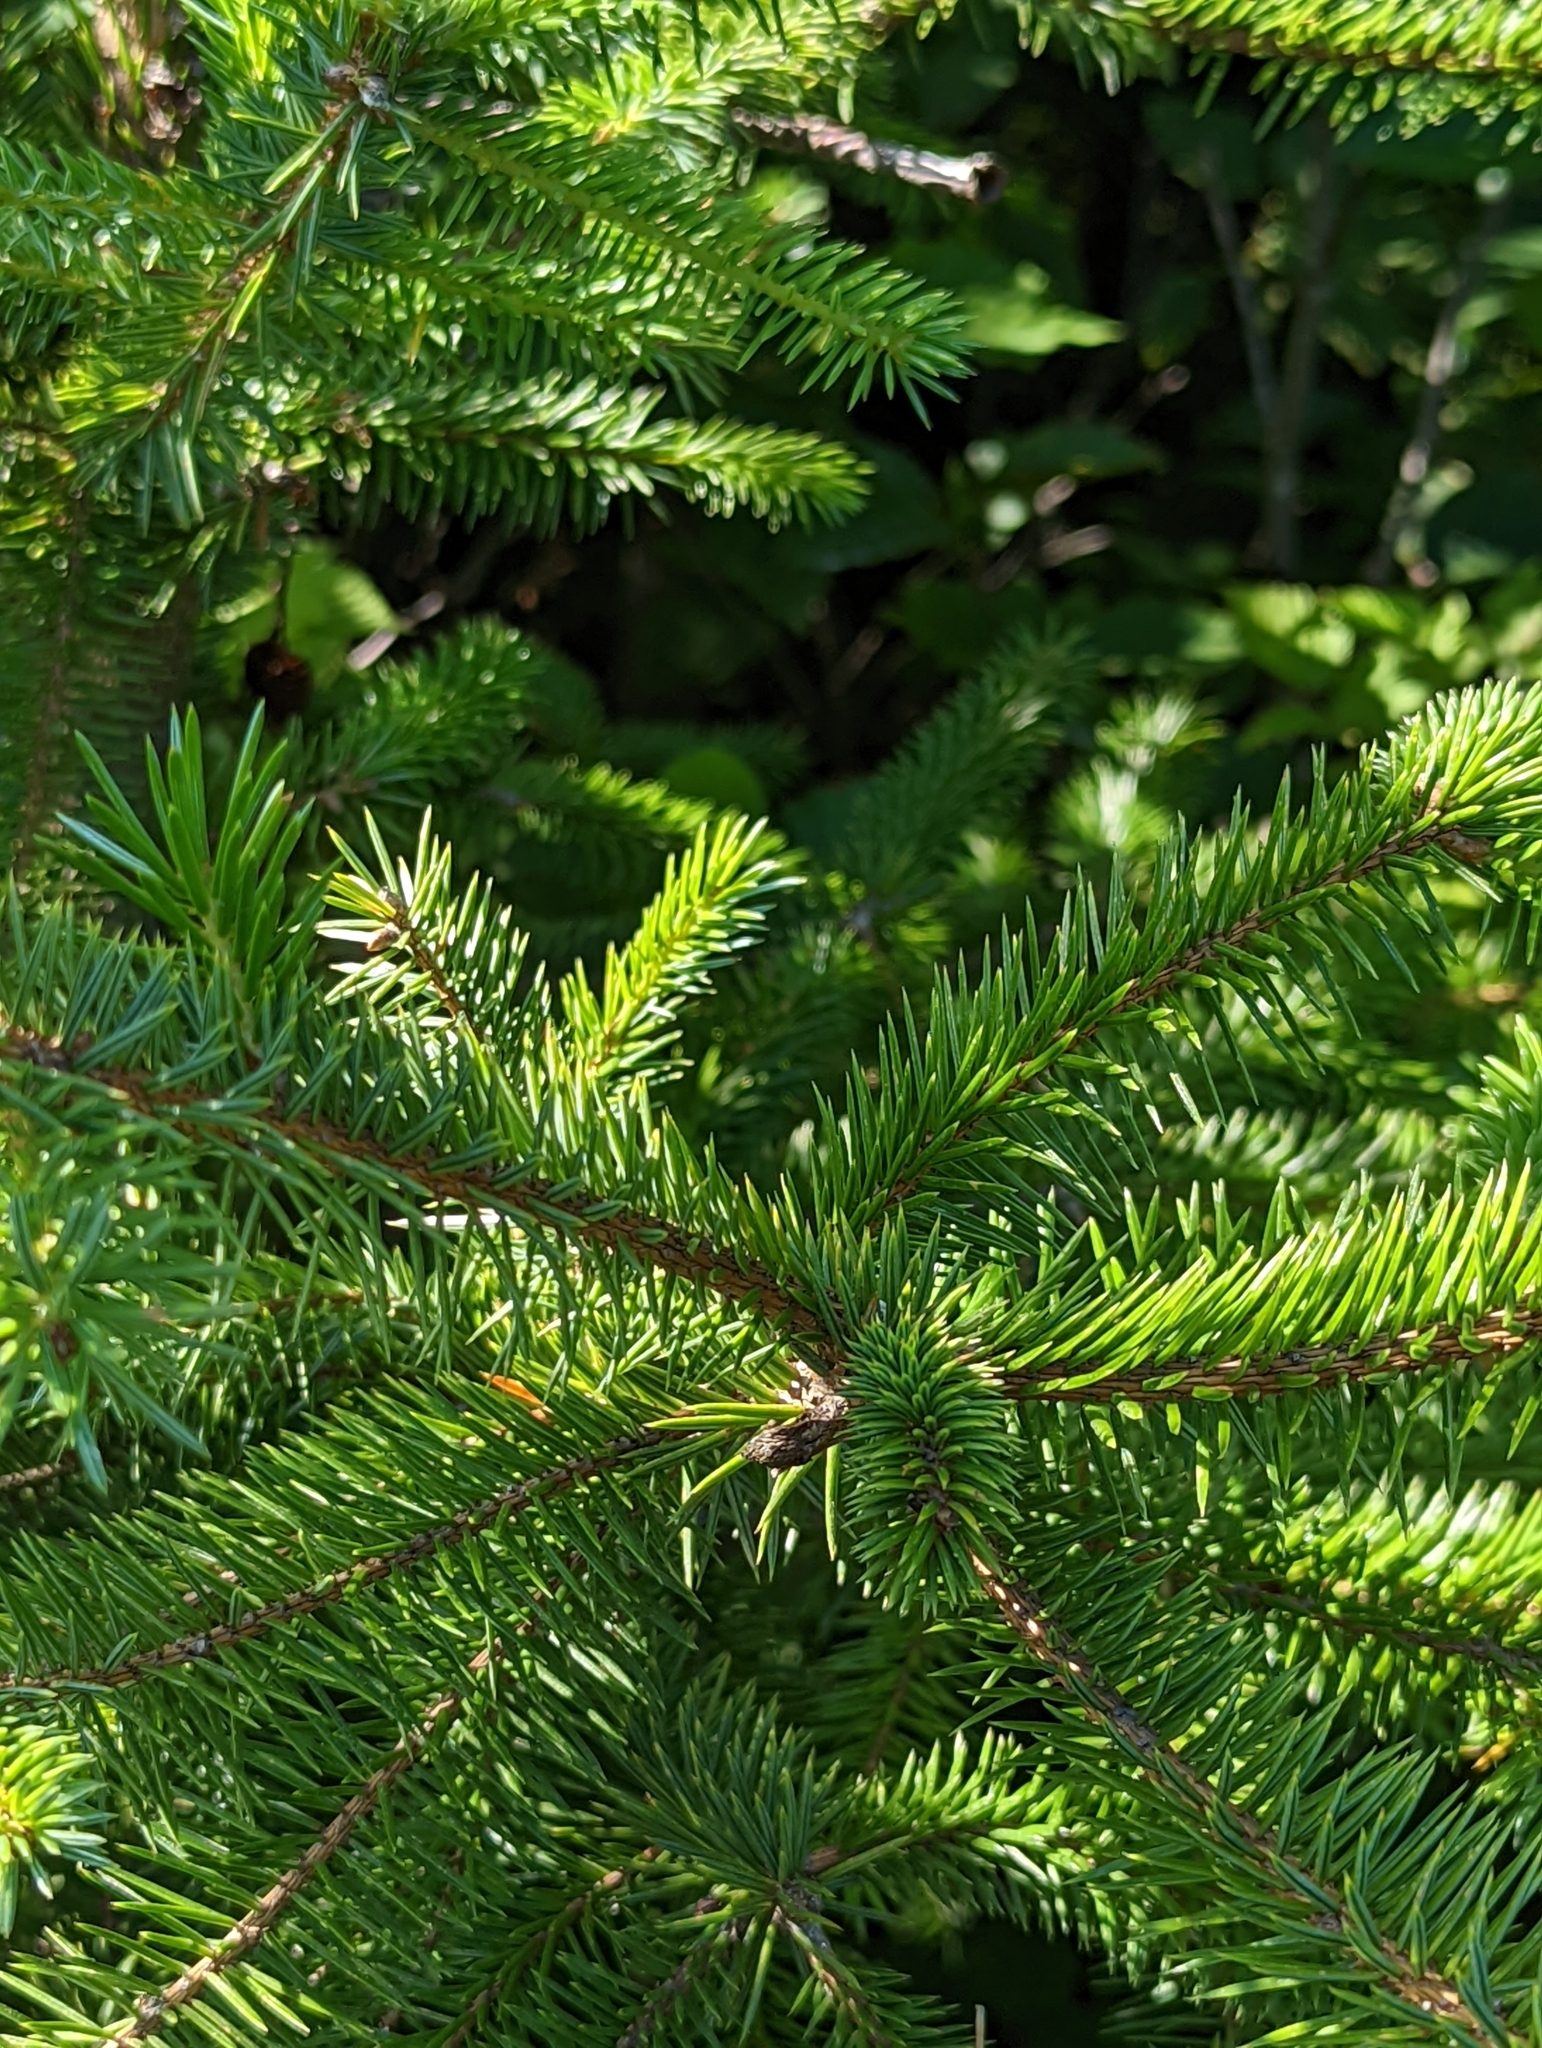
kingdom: Plantae
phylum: Tracheophyta
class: Pinopsida
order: Pinales
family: Pinaceae
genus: Picea
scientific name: Picea sitchensis
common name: Sitka spruce
